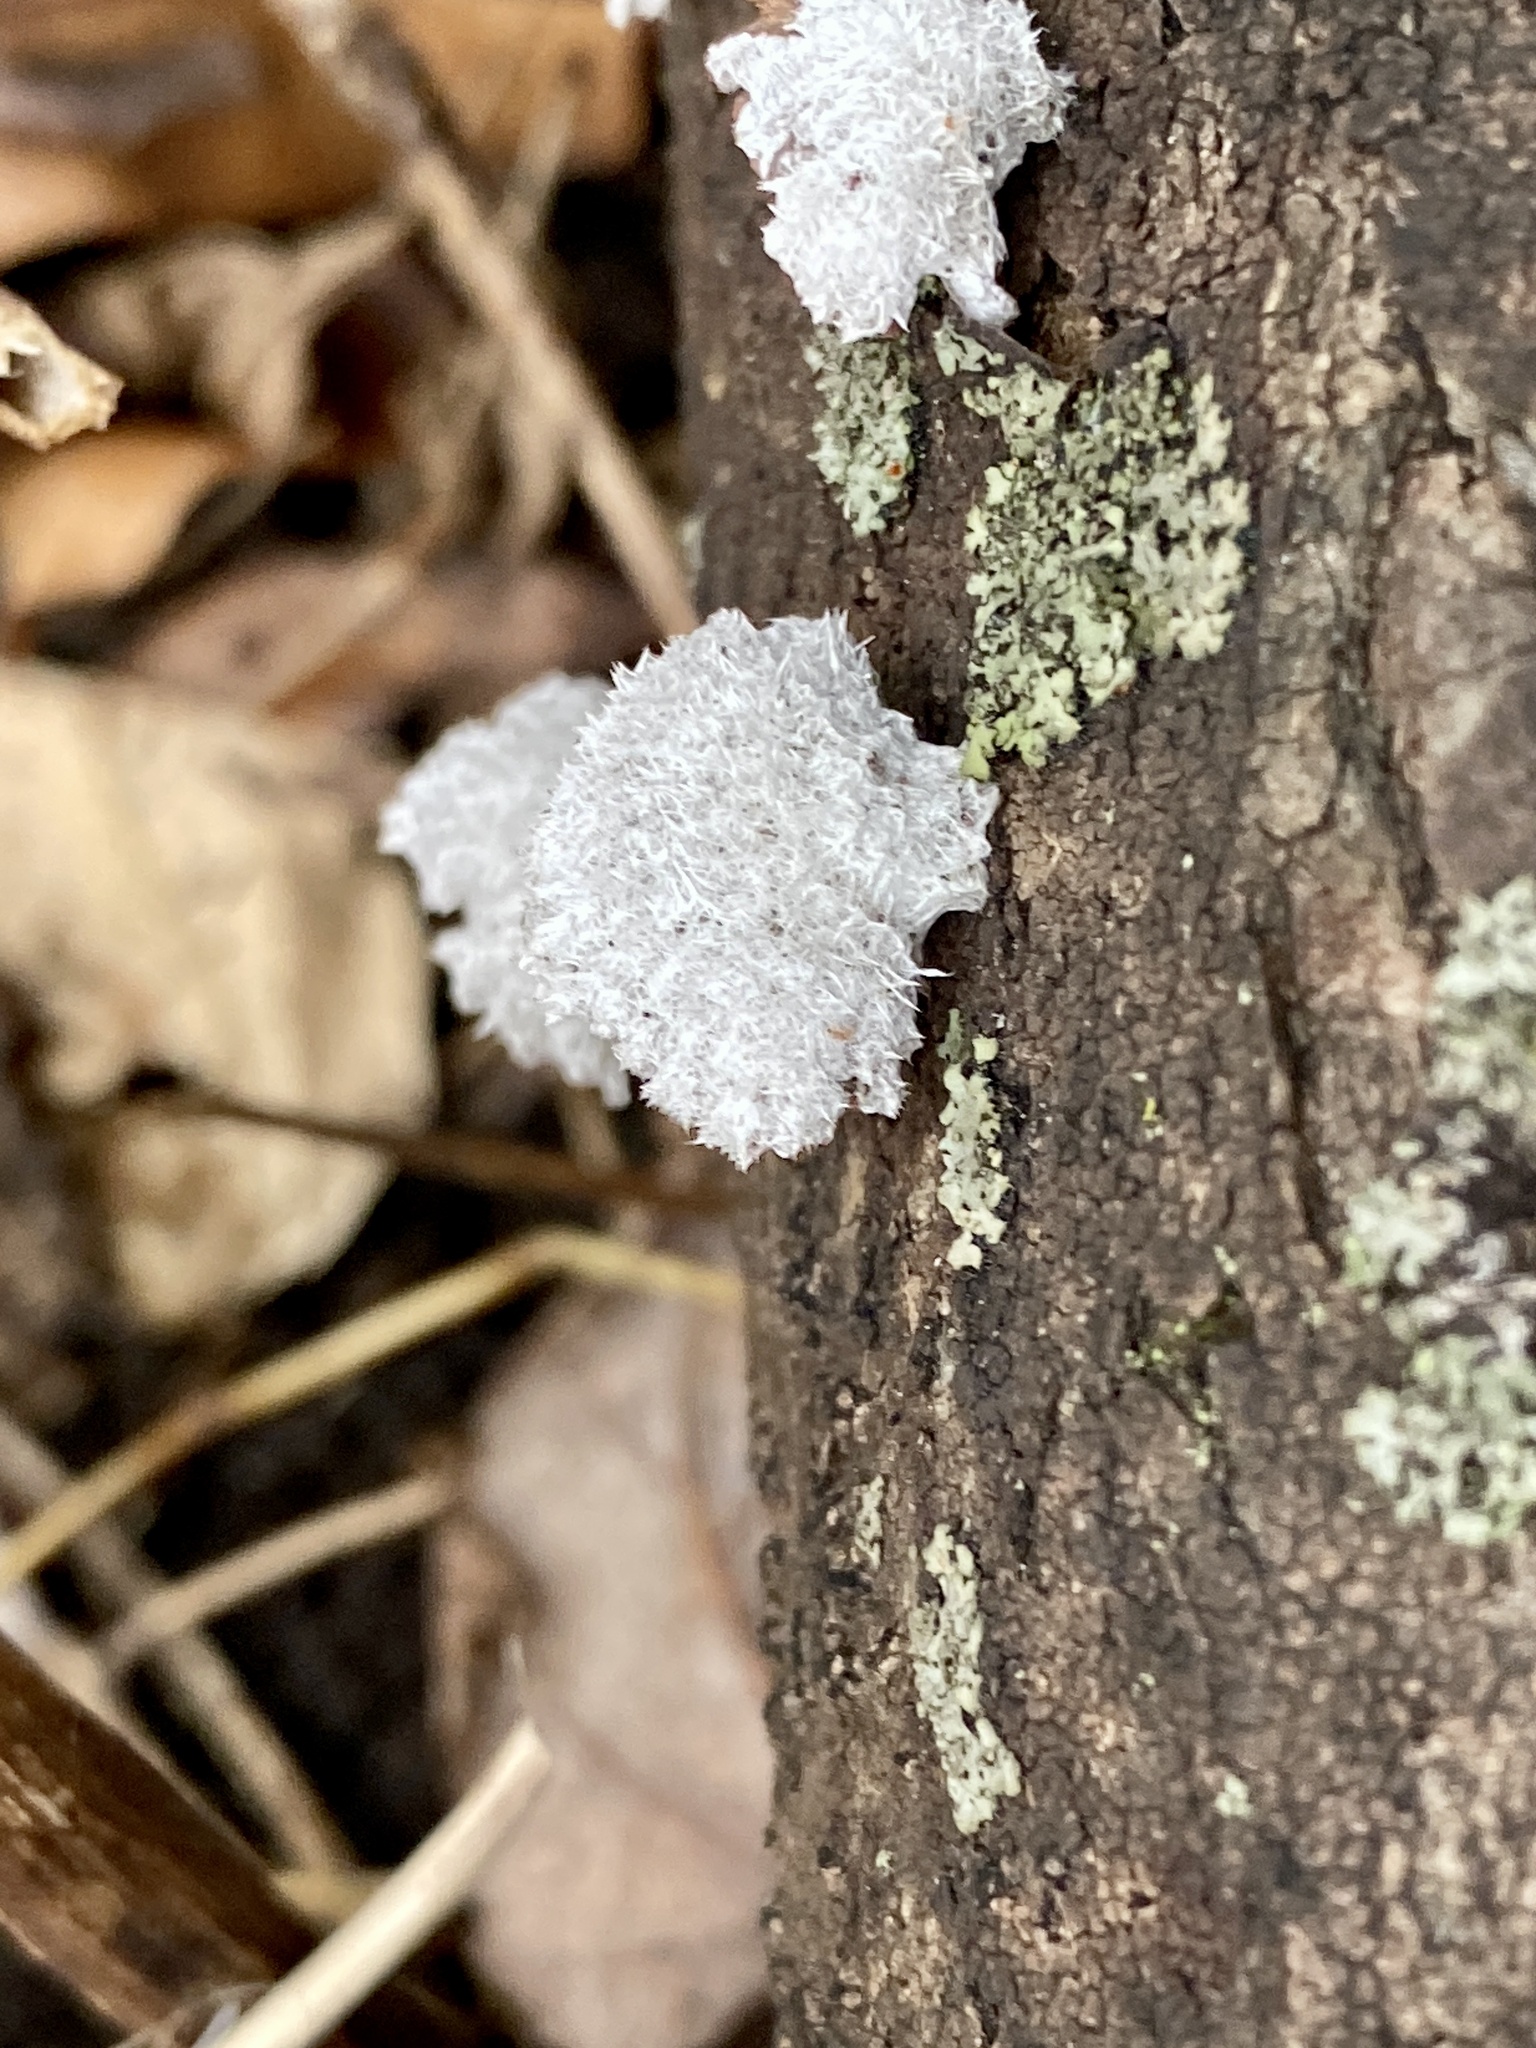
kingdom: Fungi
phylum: Basidiomycota
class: Agaricomycetes
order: Agaricales
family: Schizophyllaceae
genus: Schizophyllum
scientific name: Schizophyllum commune
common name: Common porecrust
